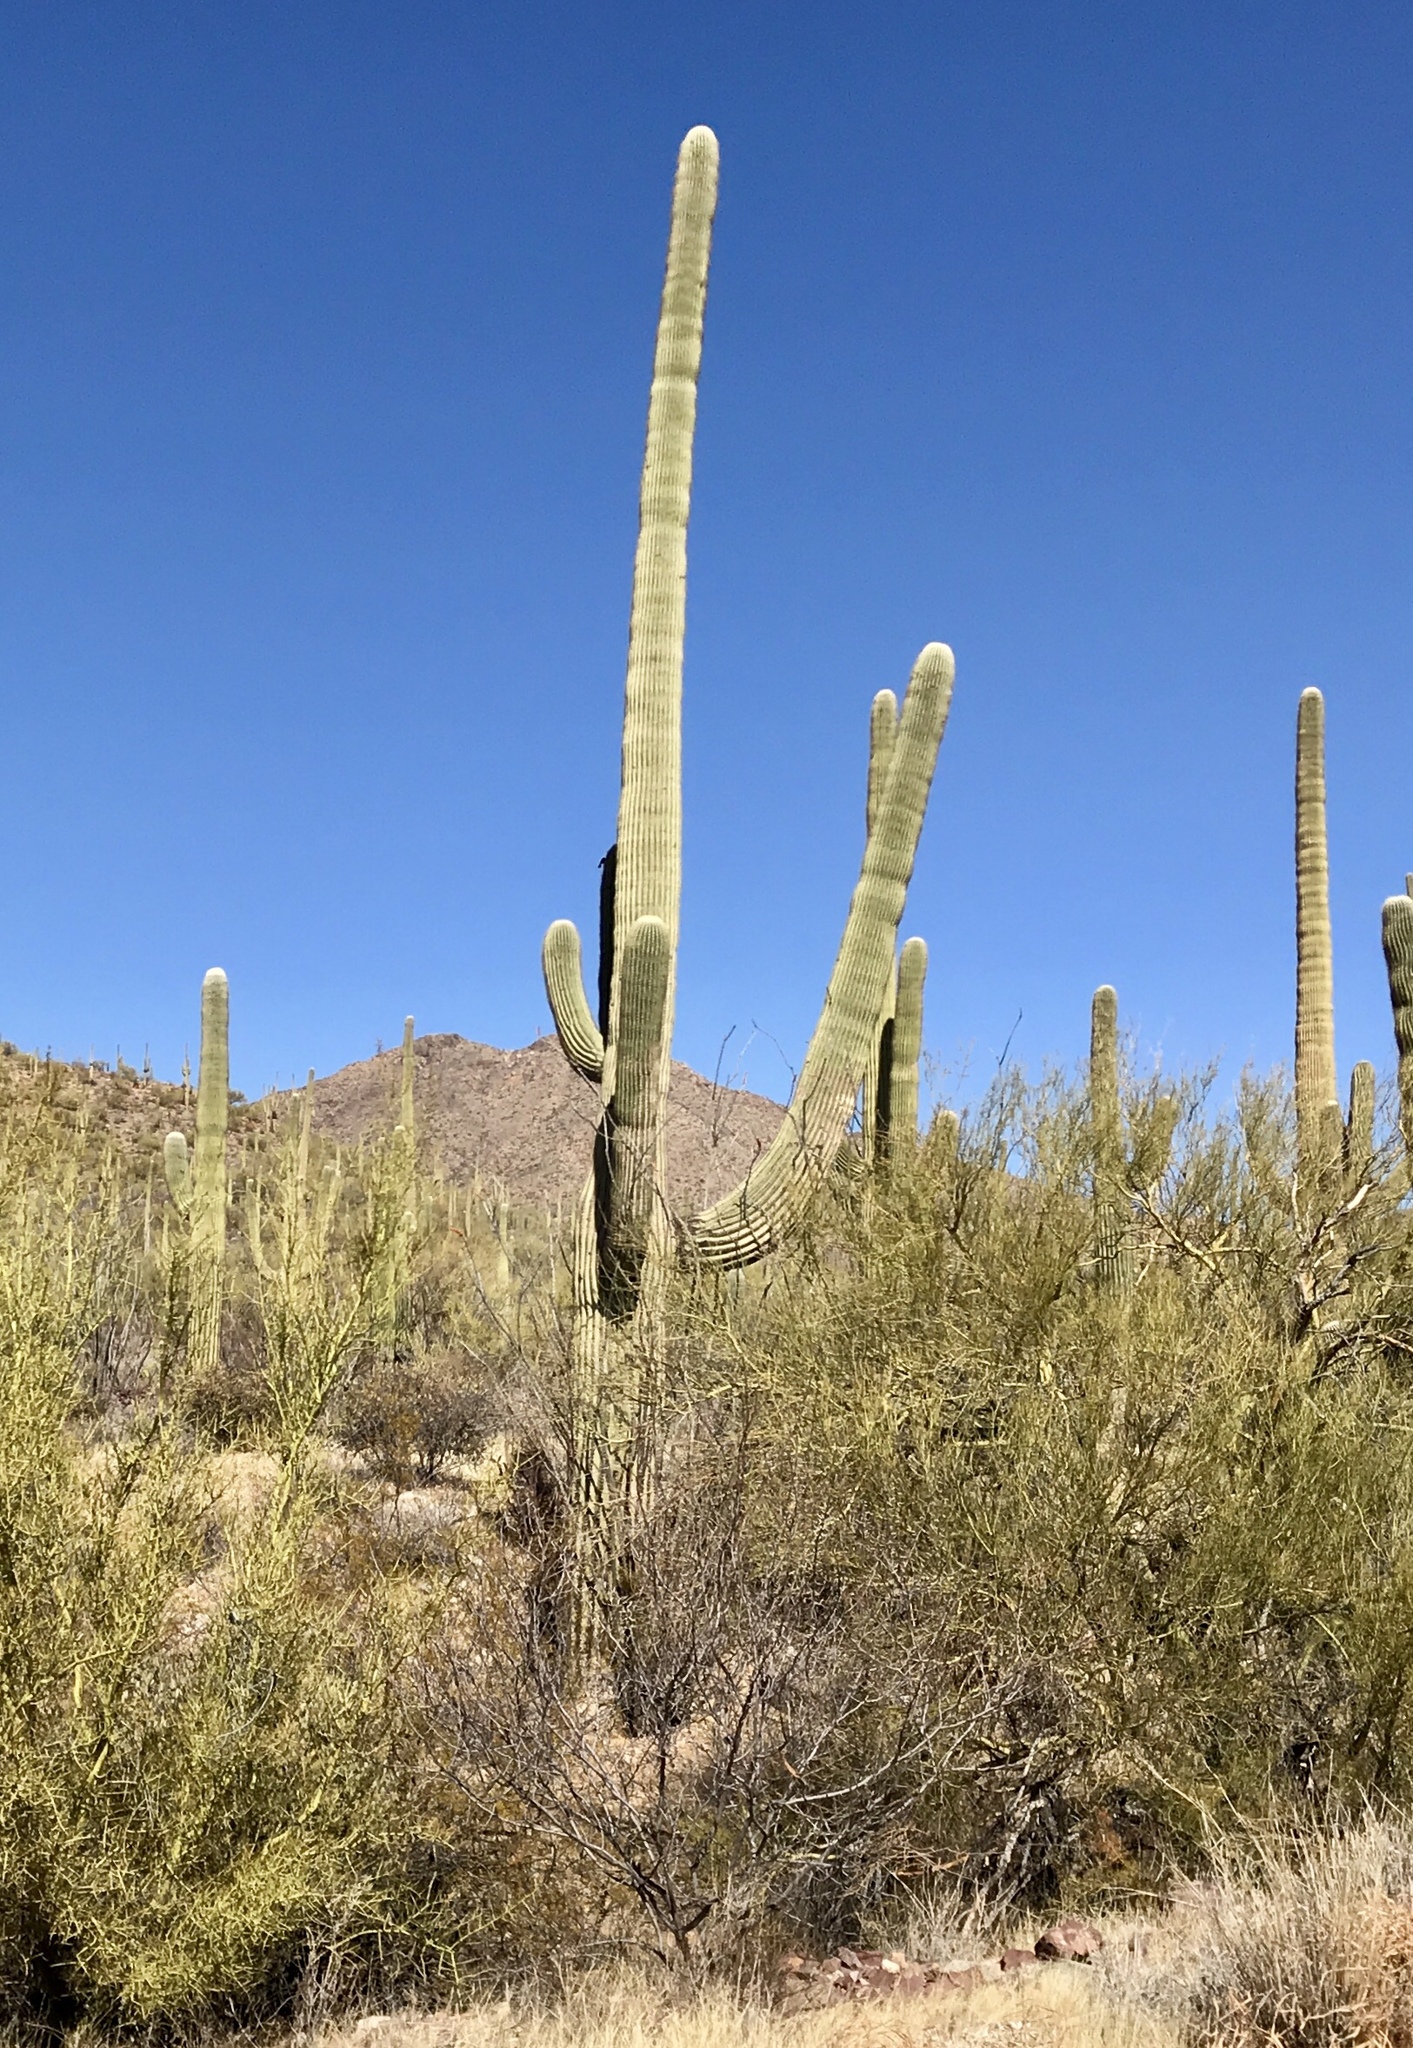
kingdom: Plantae
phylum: Tracheophyta
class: Magnoliopsida
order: Caryophyllales
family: Cactaceae
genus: Carnegiea
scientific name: Carnegiea gigantea
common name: Saguaro
